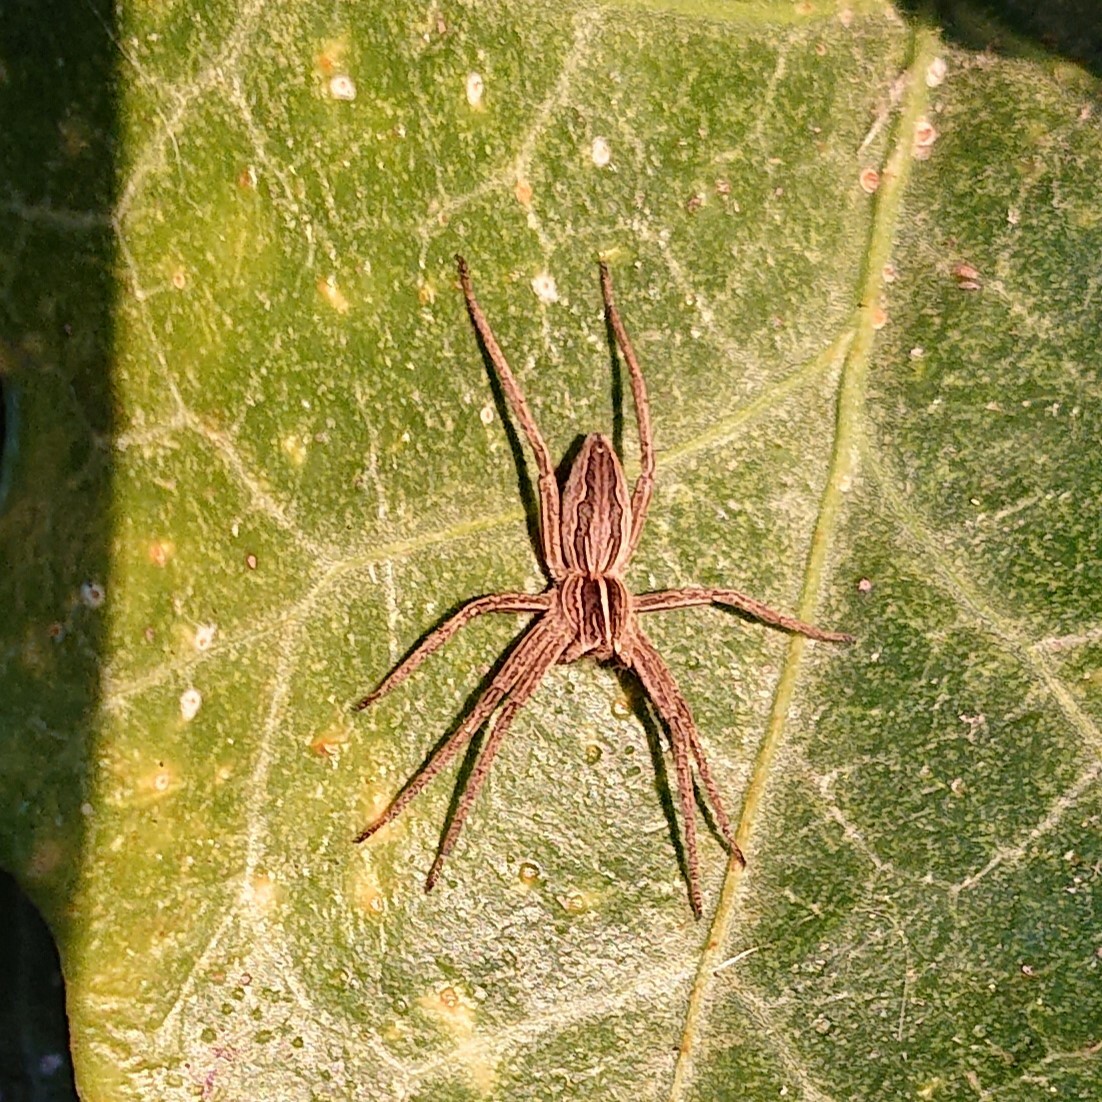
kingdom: Animalia
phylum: Arthropoda
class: Arachnida
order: Araneae
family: Pisauridae
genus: Pisaura
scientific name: Pisaura mirabilis
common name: Tent spider
